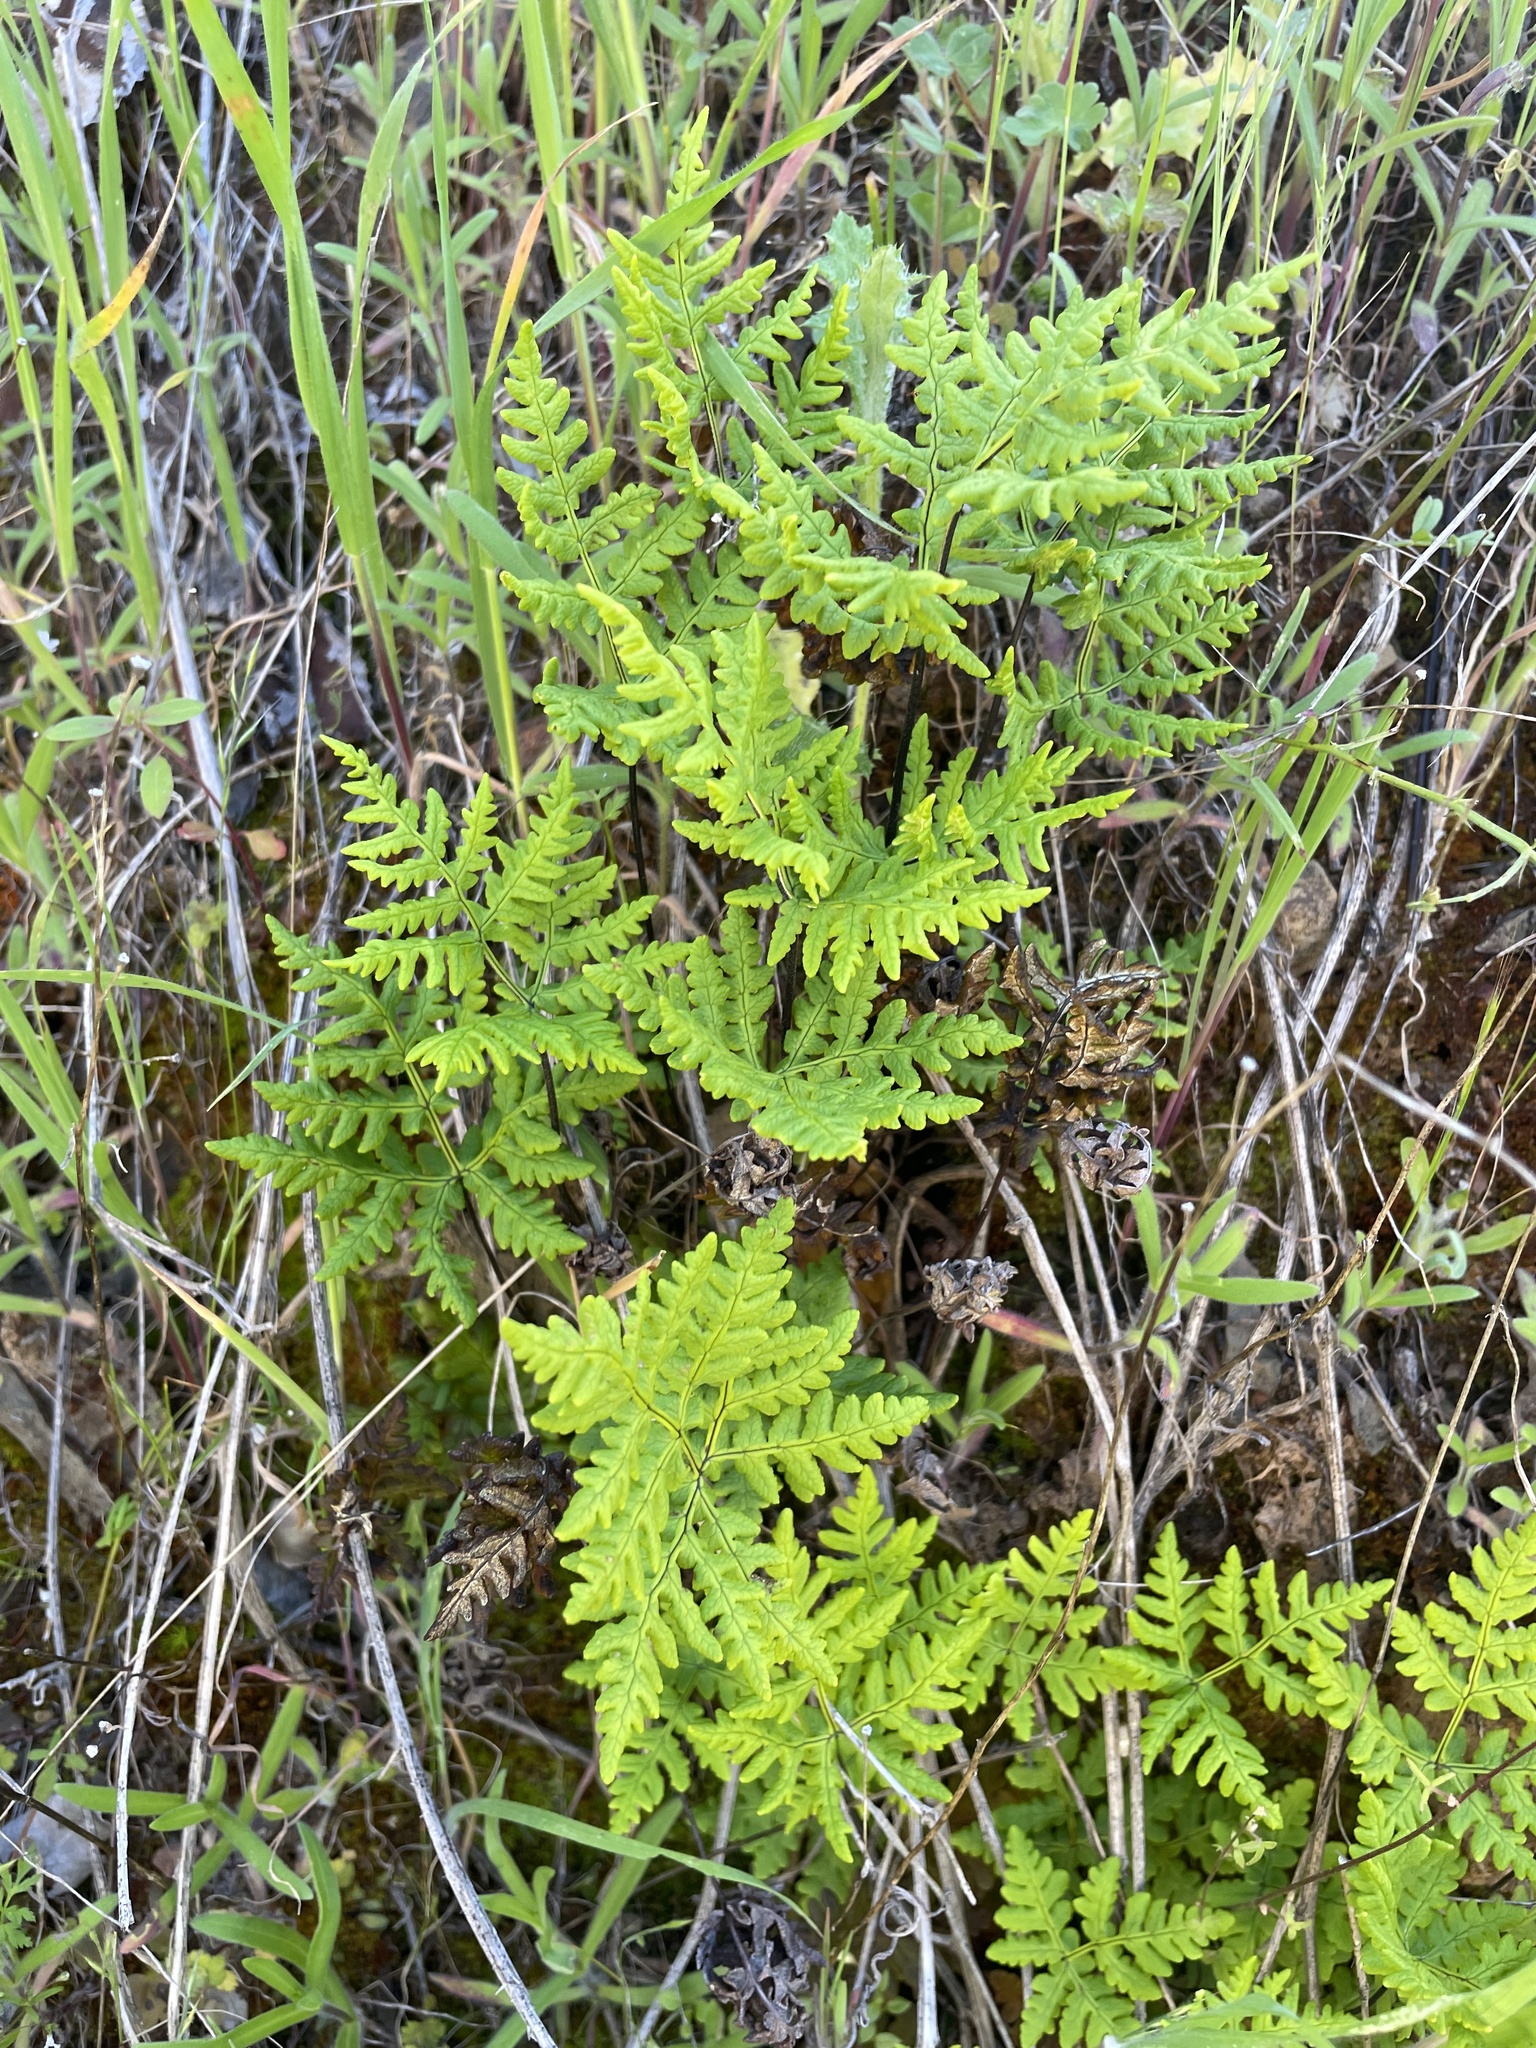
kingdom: Plantae
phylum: Tracheophyta
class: Polypodiopsida
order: Polypodiales
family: Pteridaceae
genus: Pentagramma
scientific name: Pentagramma triangularis
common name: Gold fern
